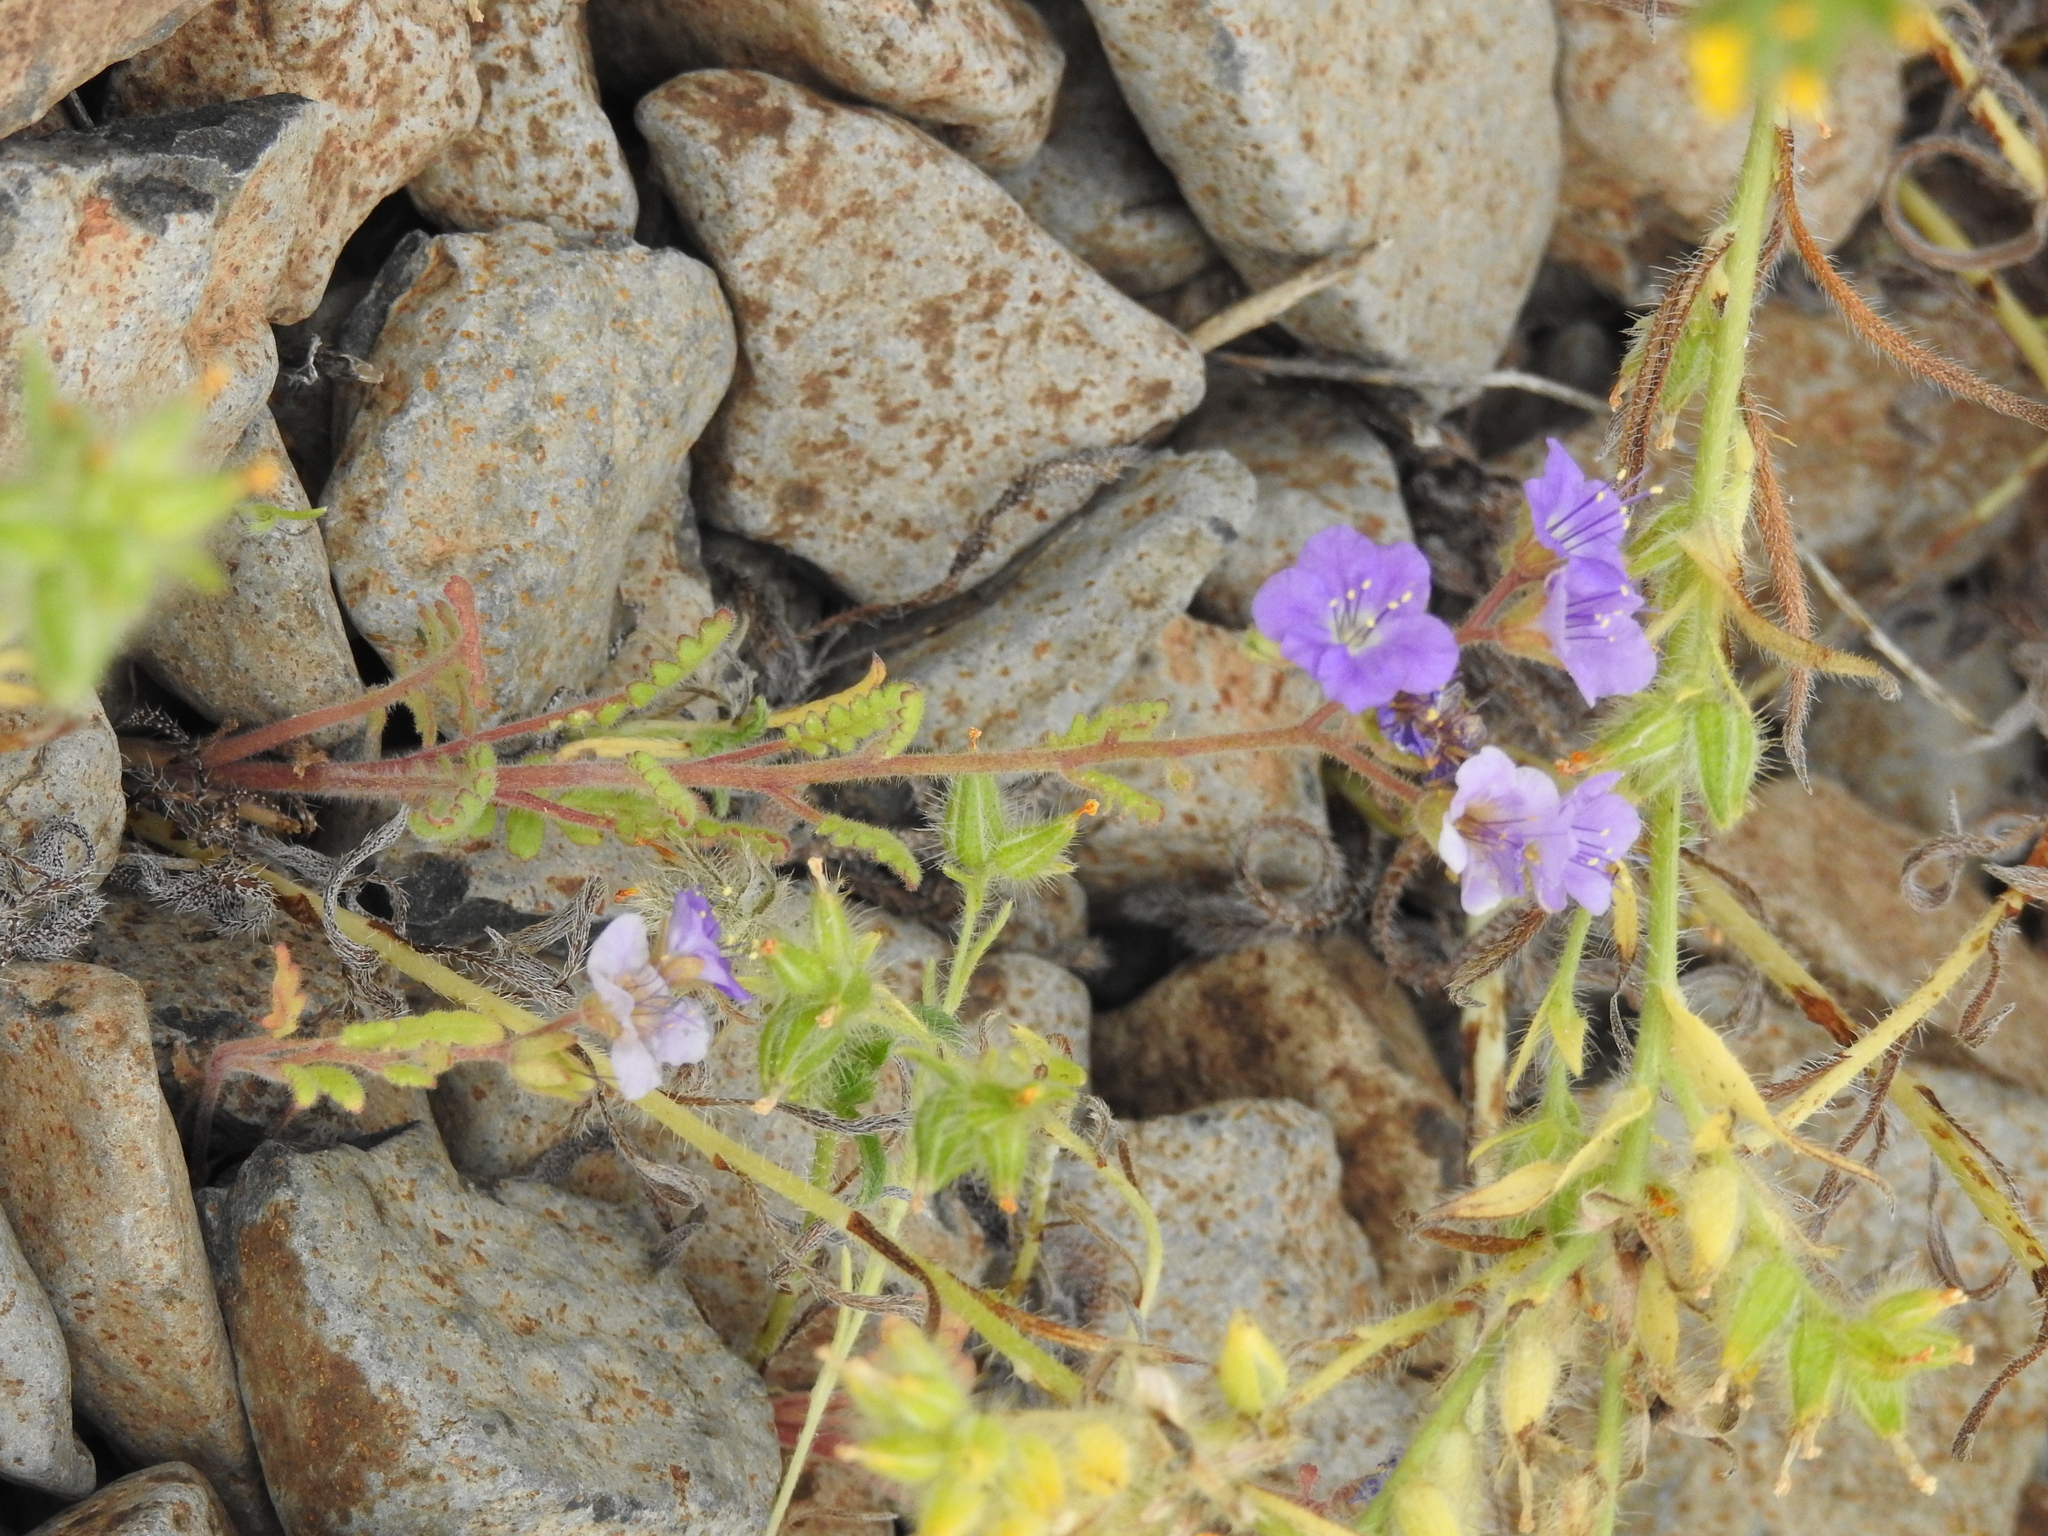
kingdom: Plantae
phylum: Tracheophyta
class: Magnoliopsida
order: Boraginales
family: Hydrophyllaceae
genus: Phacelia
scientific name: Phacelia crenulata
